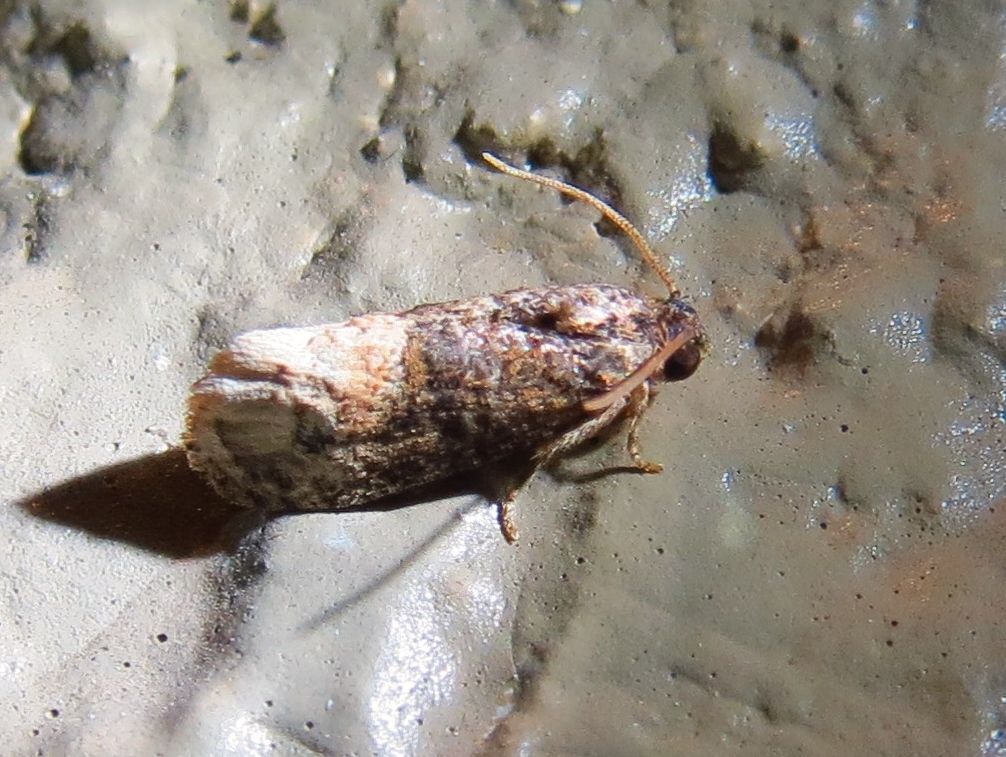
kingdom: Animalia
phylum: Arthropoda
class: Insecta
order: Lepidoptera
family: Tortricidae
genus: Ecdytolopha
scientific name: Ecdytolopha mana
